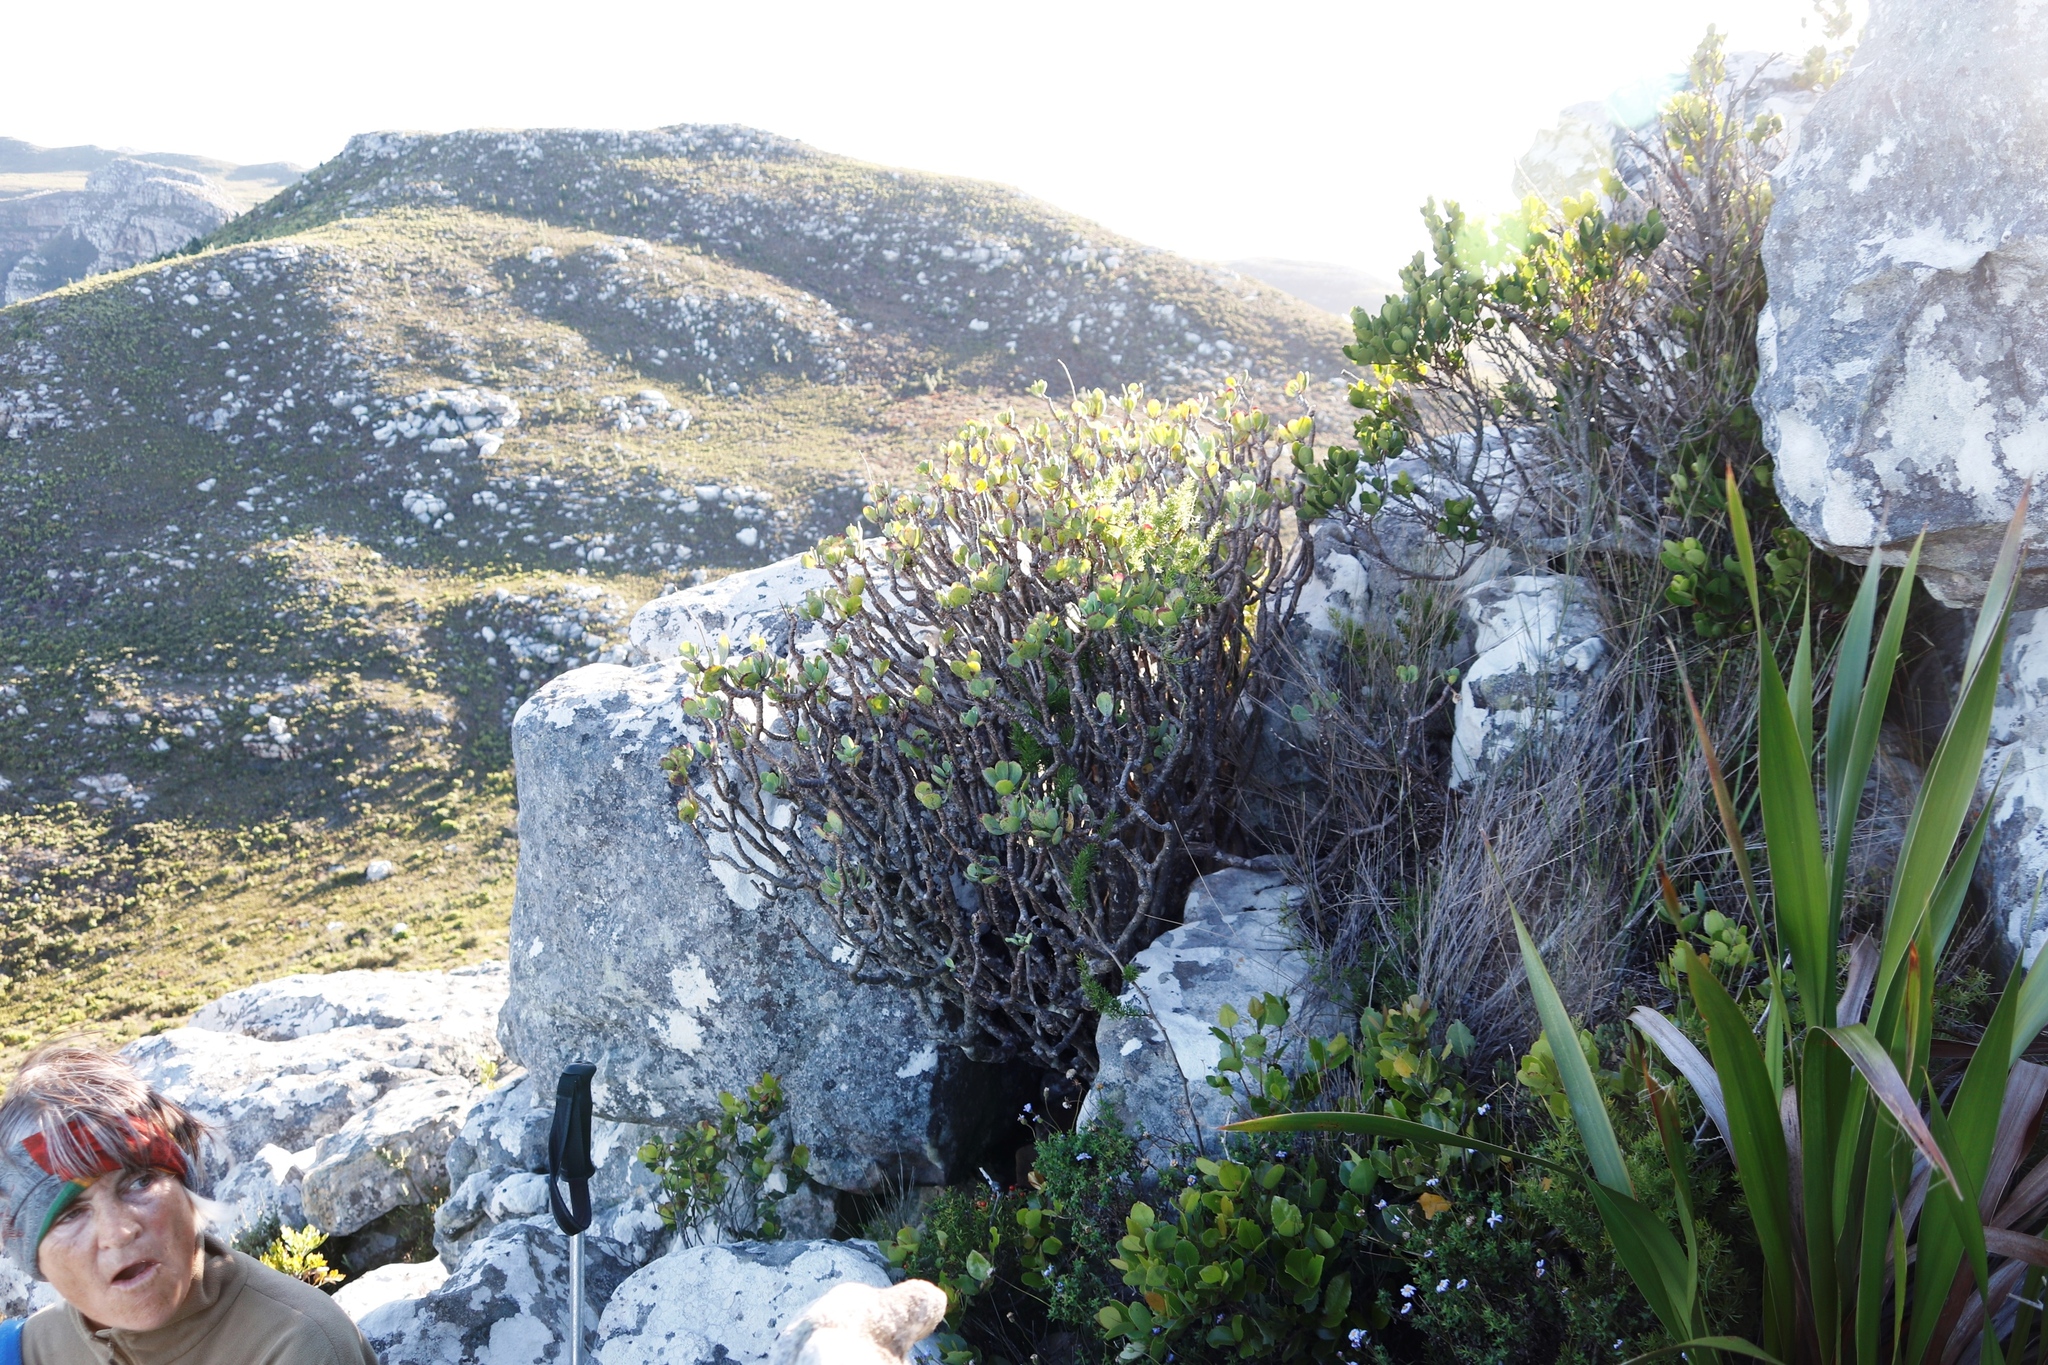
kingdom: Plantae
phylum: Tracheophyta
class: Magnoliopsida
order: Asterales
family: Asteraceae
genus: Othonna
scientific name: Othonna dentata
